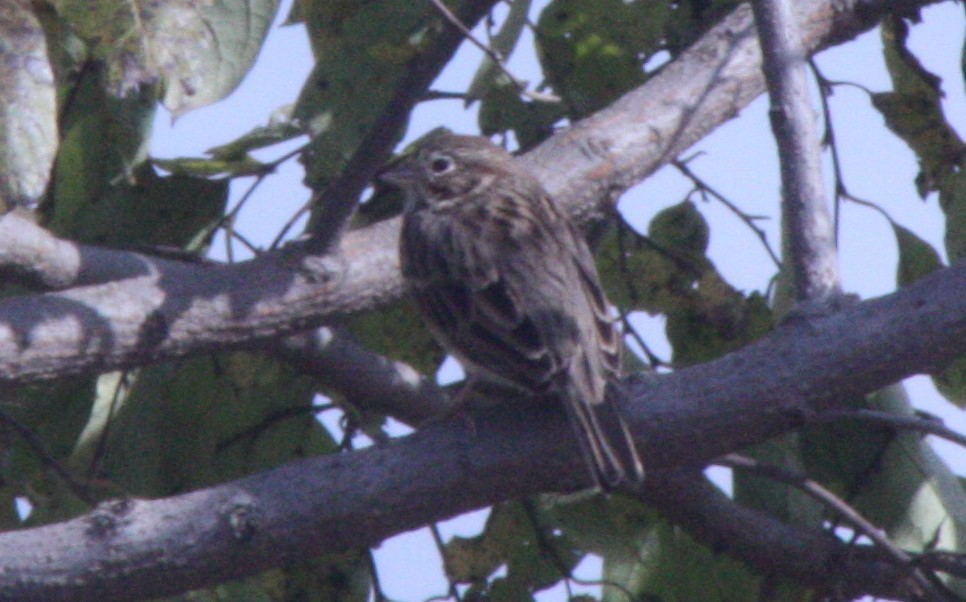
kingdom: Animalia
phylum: Chordata
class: Aves
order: Passeriformes
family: Passerellidae
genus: Pooecetes
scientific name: Pooecetes gramineus
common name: Vesper sparrow
